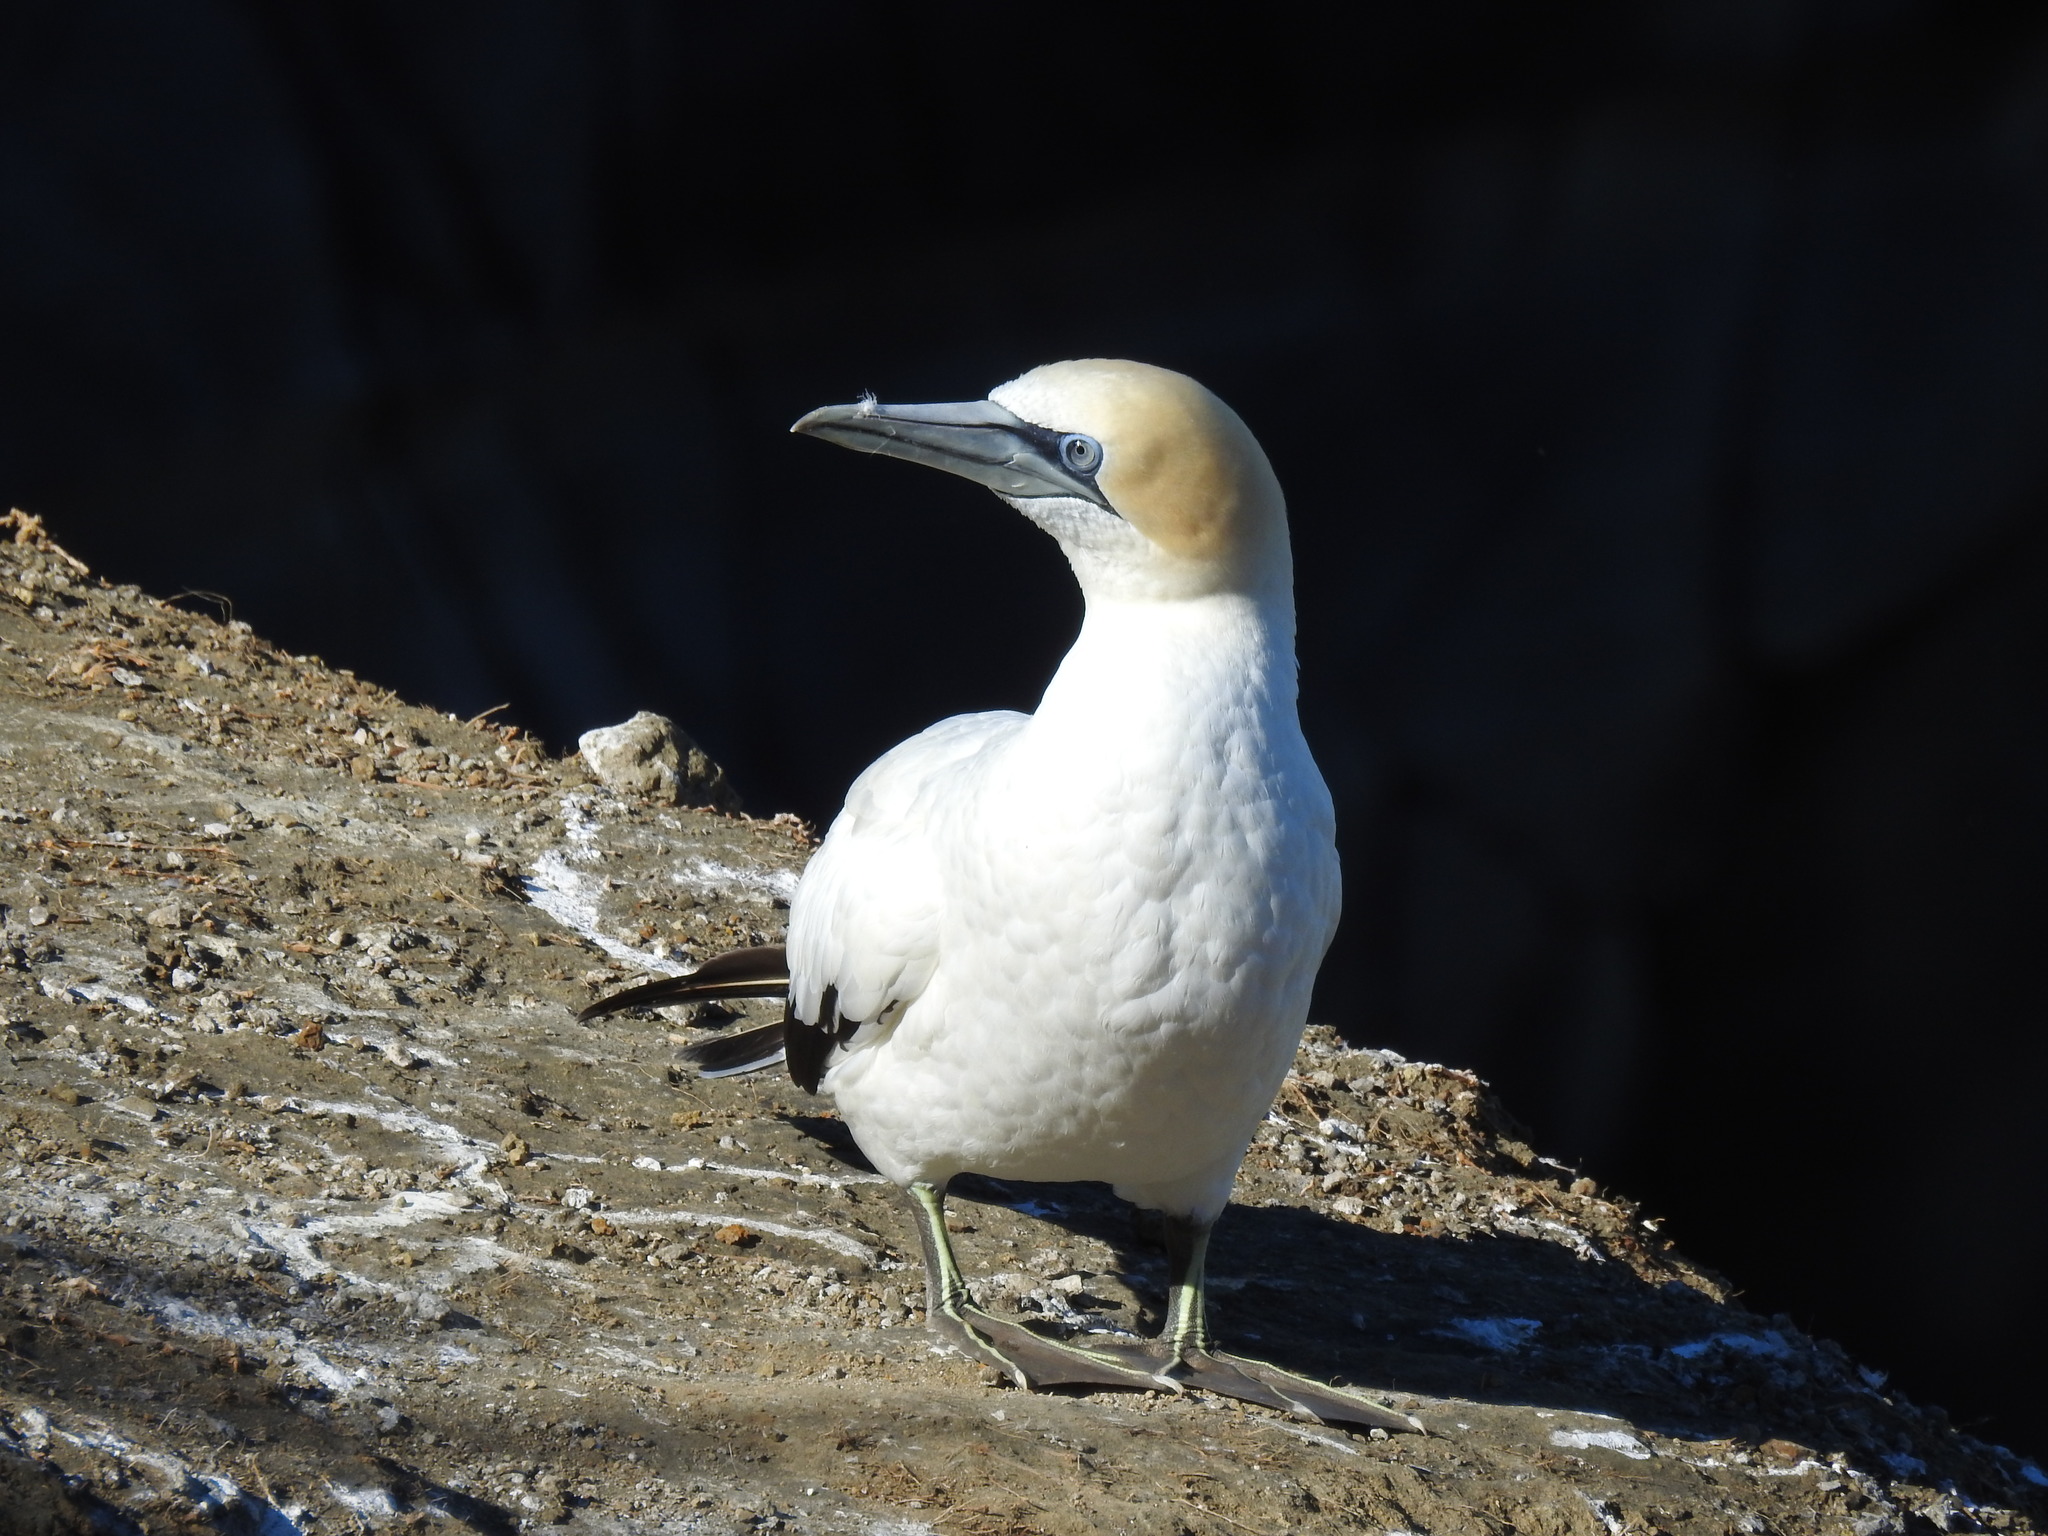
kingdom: Animalia
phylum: Chordata
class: Aves
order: Suliformes
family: Sulidae
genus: Morus
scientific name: Morus serrator
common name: Australasian gannet
